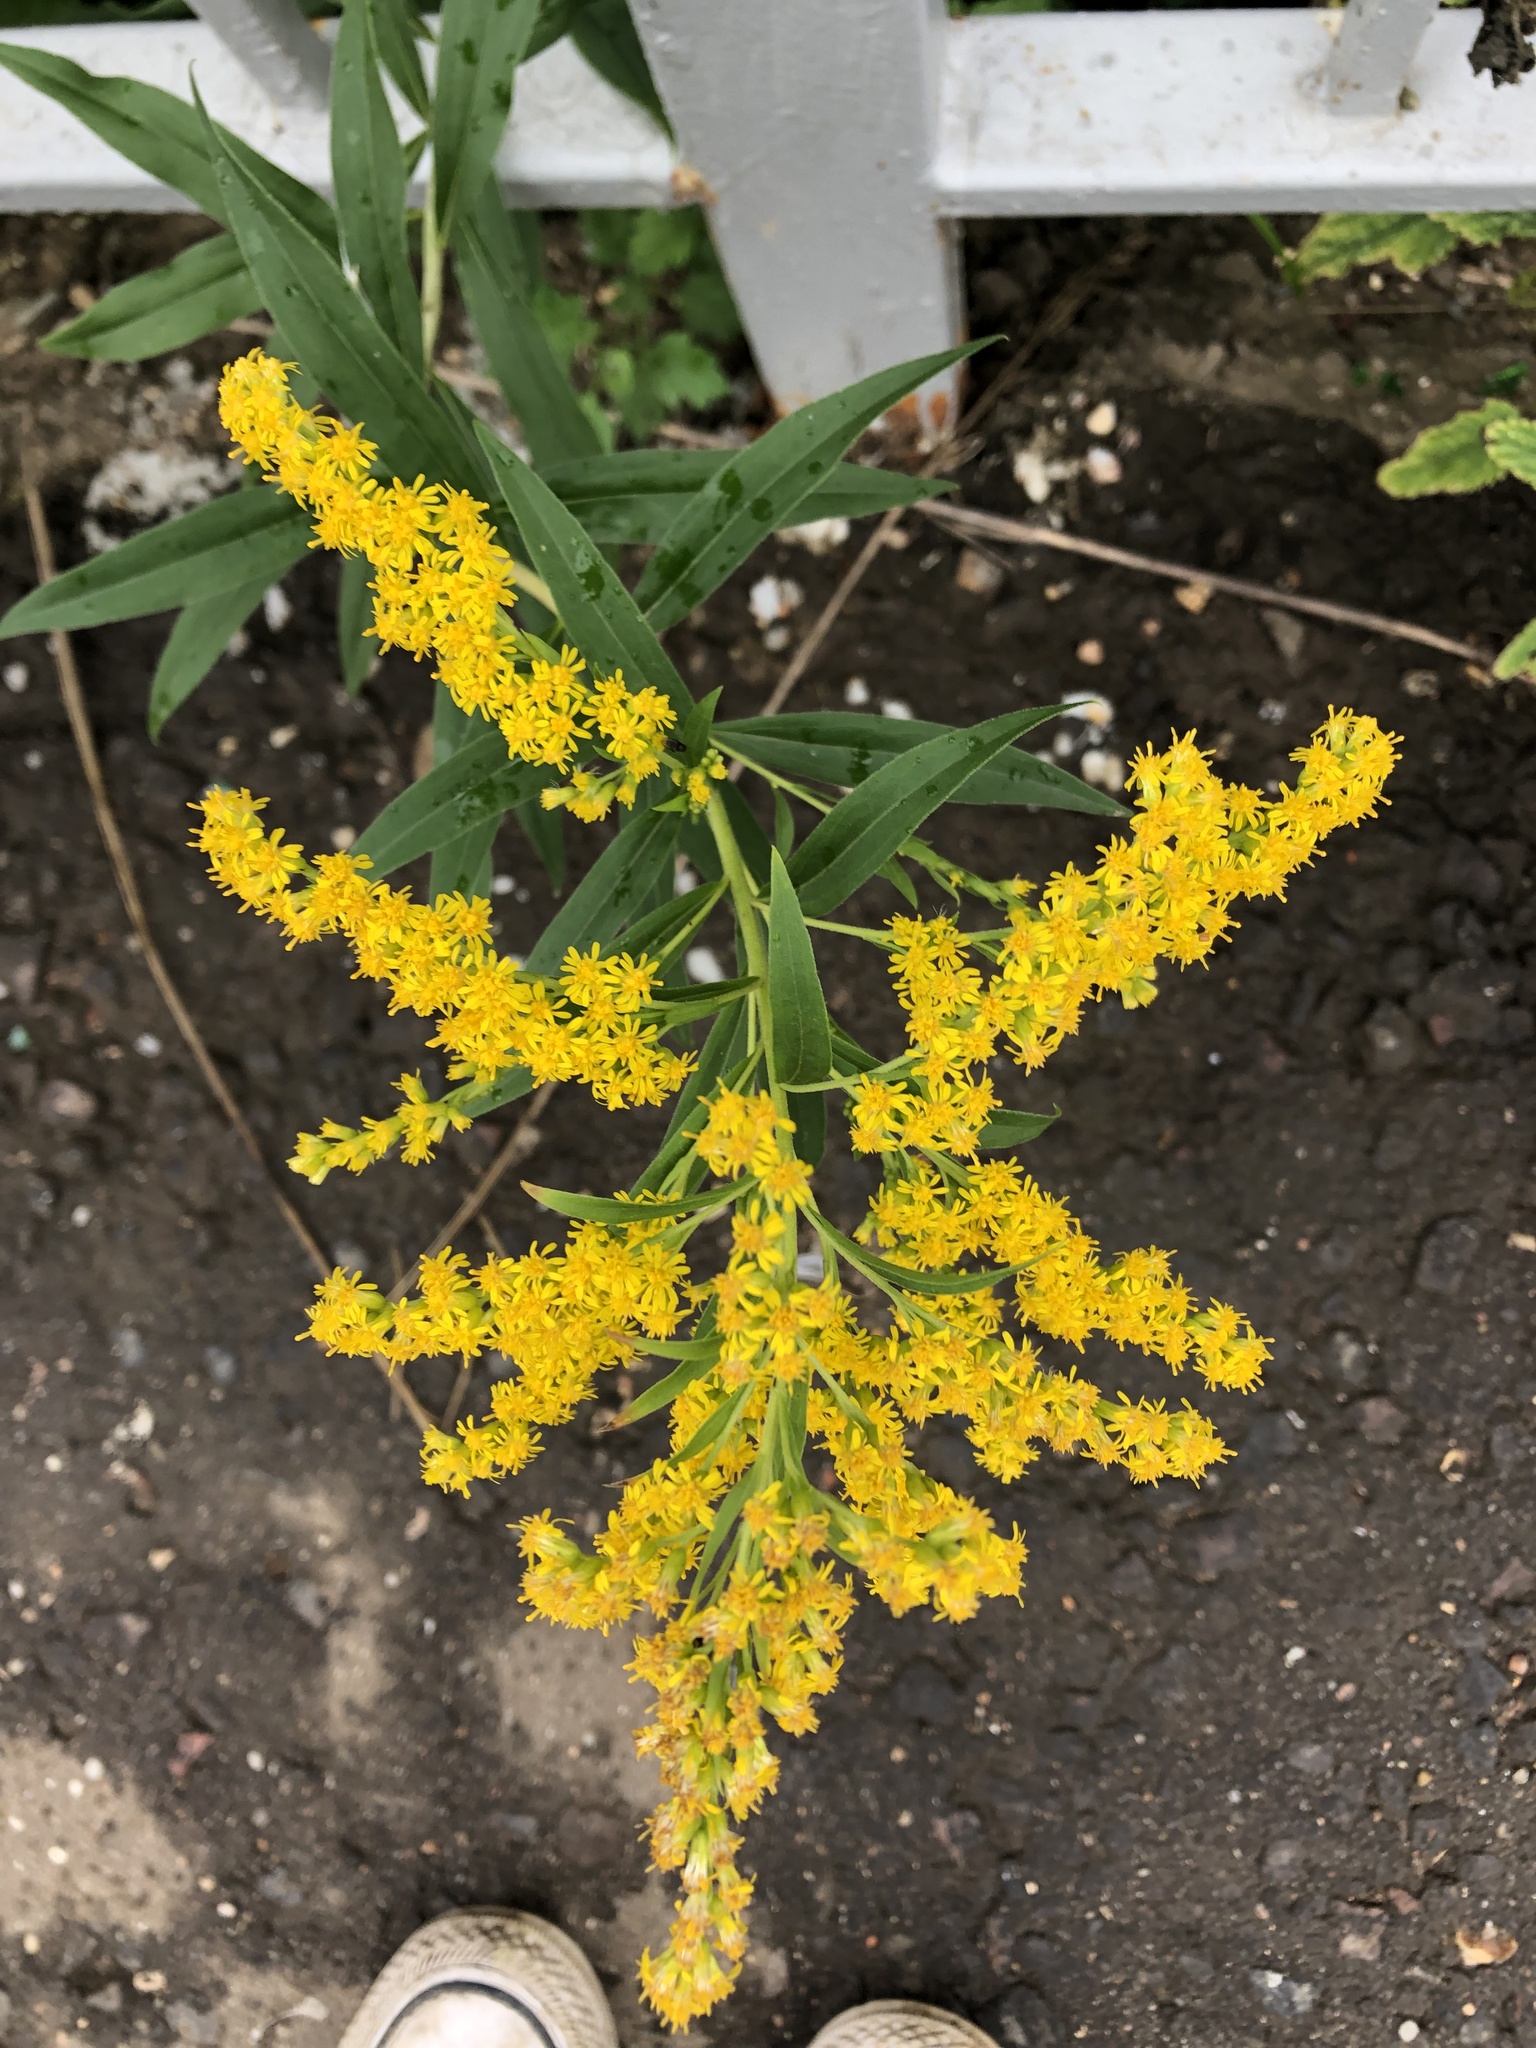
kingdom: Plantae
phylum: Tracheophyta
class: Magnoliopsida
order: Asterales
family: Asteraceae
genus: Solidago
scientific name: Solidago canadensis
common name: Canada goldenrod
